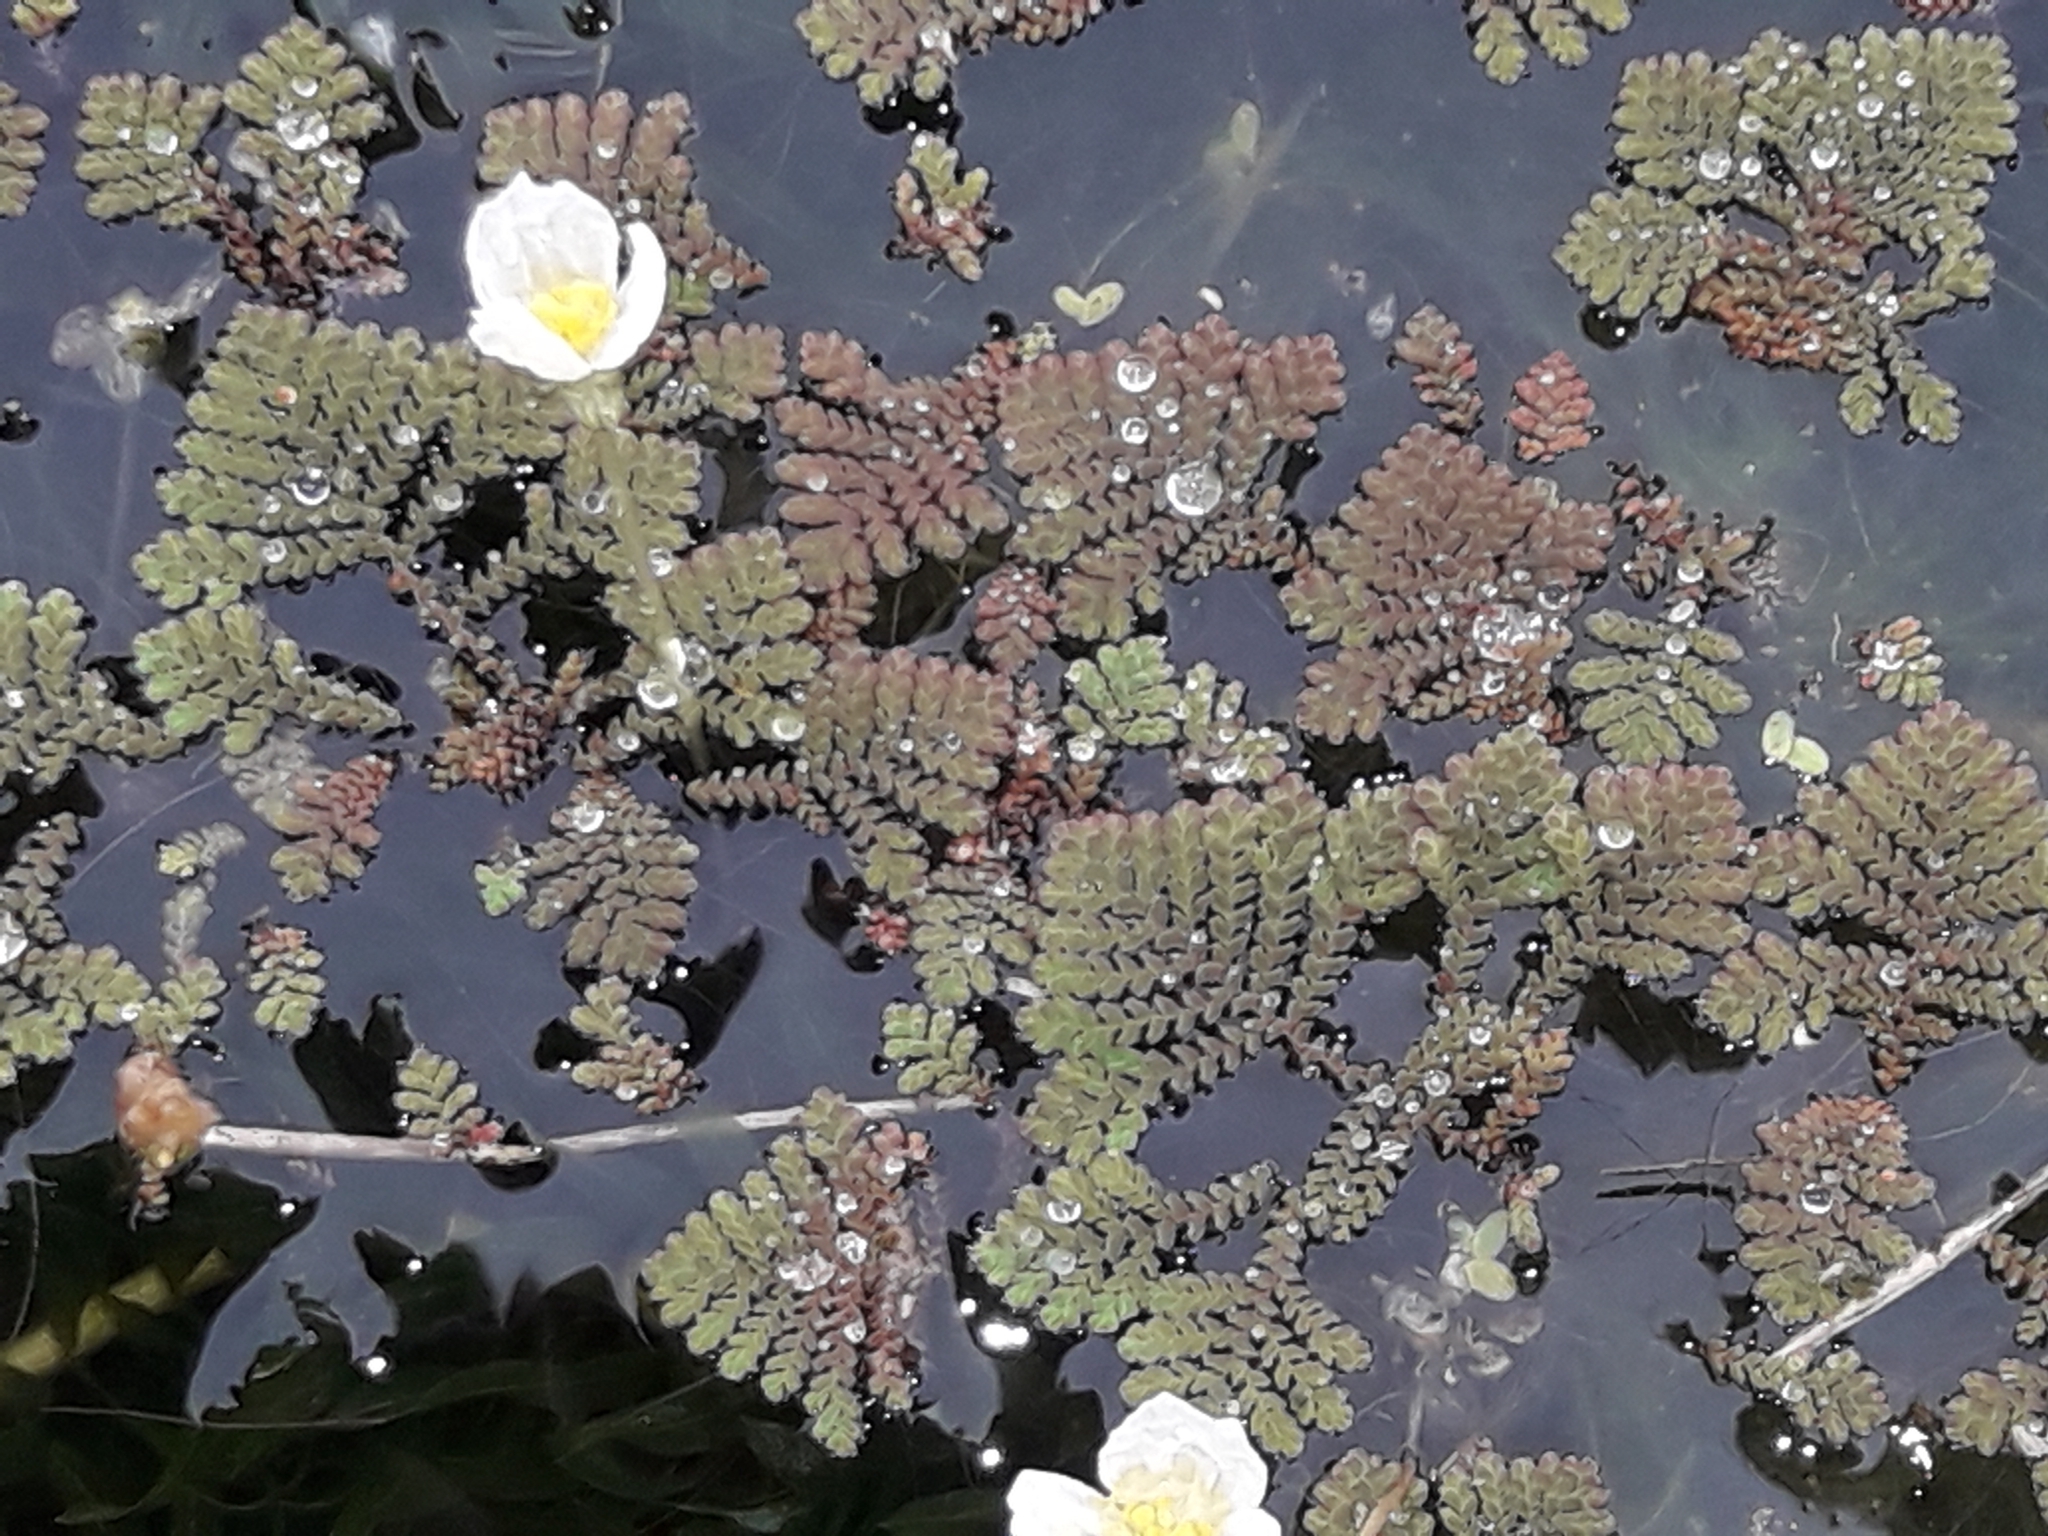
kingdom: Plantae
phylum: Tracheophyta
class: Polypodiopsida
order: Salviniales
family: Salviniaceae
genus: Azolla
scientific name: Azolla pinnata
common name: Ferny azolla
